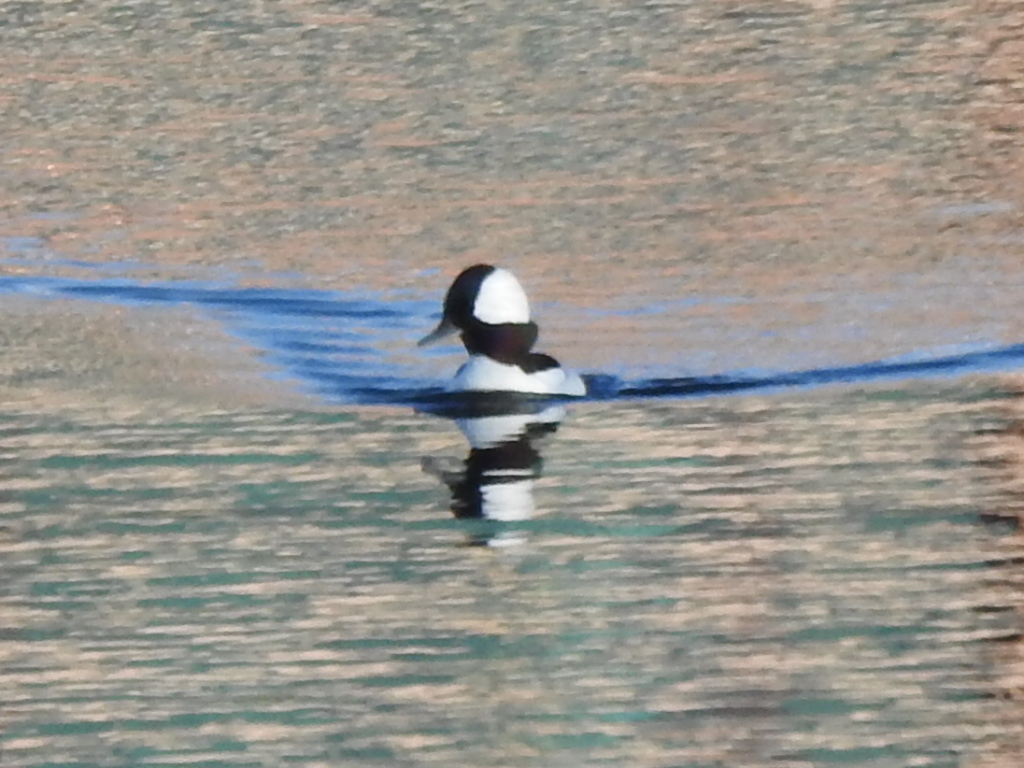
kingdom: Animalia
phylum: Chordata
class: Aves
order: Anseriformes
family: Anatidae
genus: Bucephala
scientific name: Bucephala albeola
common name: Bufflehead
